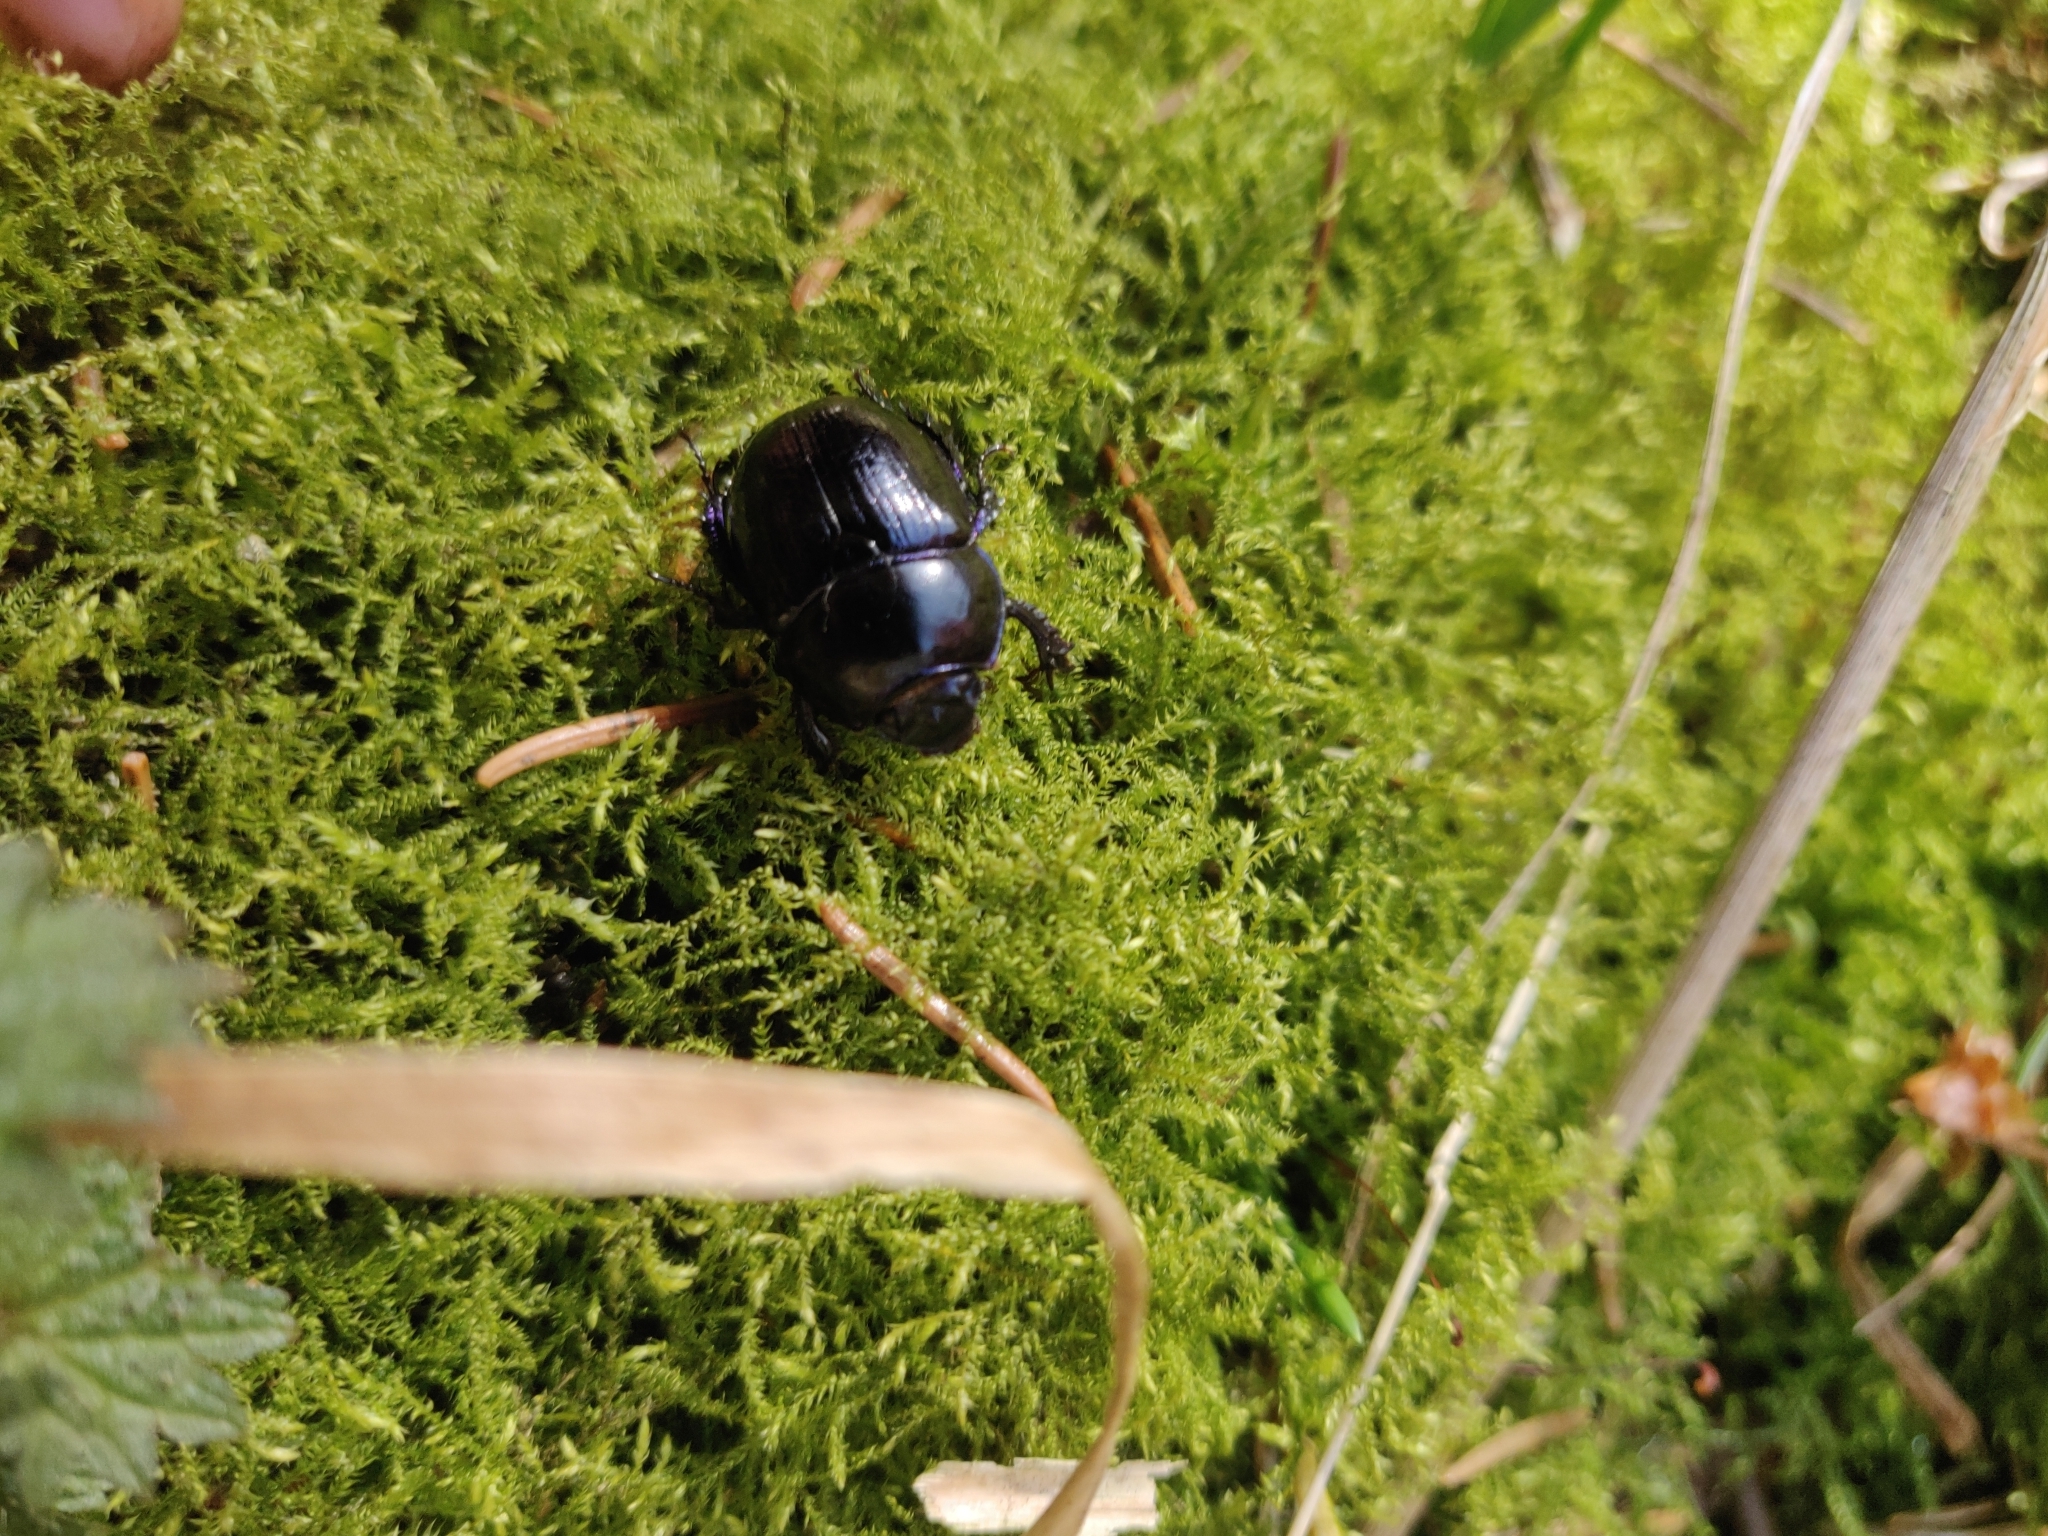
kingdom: Animalia
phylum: Arthropoda
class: Insecta
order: Coleoptera
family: Geotrupidae
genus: Anoplotrupes
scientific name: Anoplotrupes stercorosus
